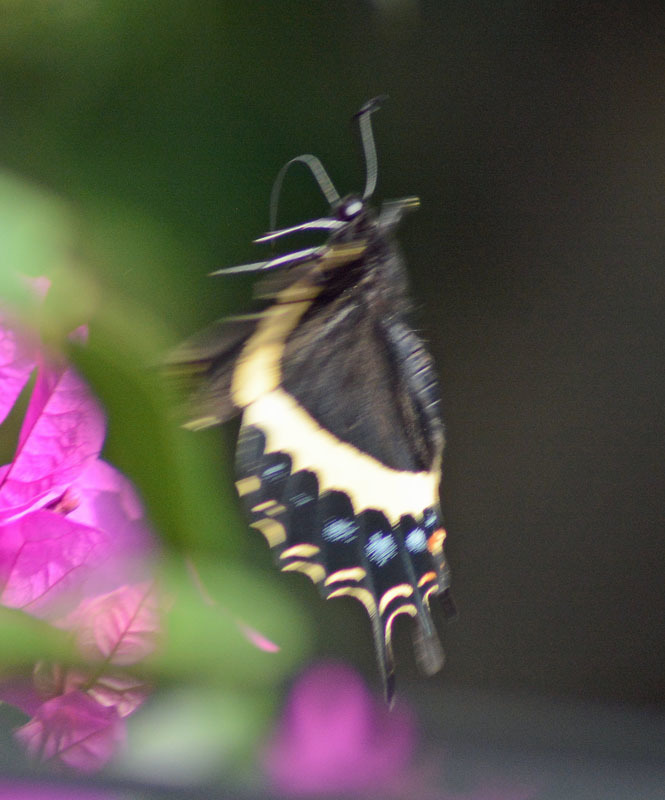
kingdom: Animalia
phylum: Arthropoda
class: Insecta
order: Lepidoptera
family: Papilionidae
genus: Papilio
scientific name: Papilio garamas
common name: Magnificent swallowtail
